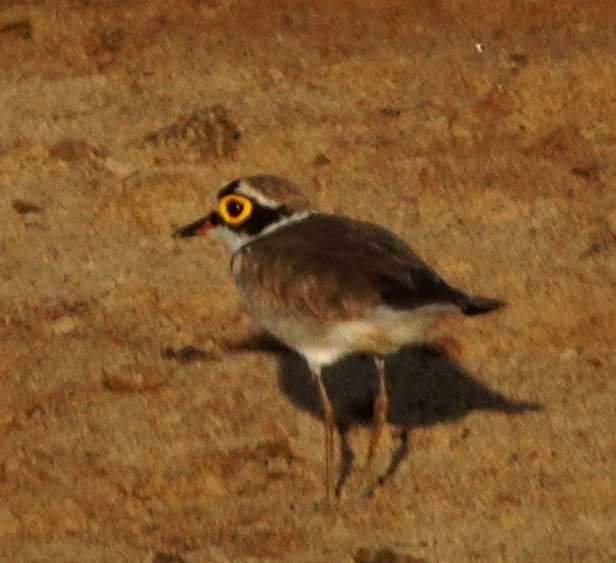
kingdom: Animalia
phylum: Chordata
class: Aves
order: Charadriiformes
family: Charadriidae
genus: Charadrius
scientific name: Charadrius dubius
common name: Little ringed plover
